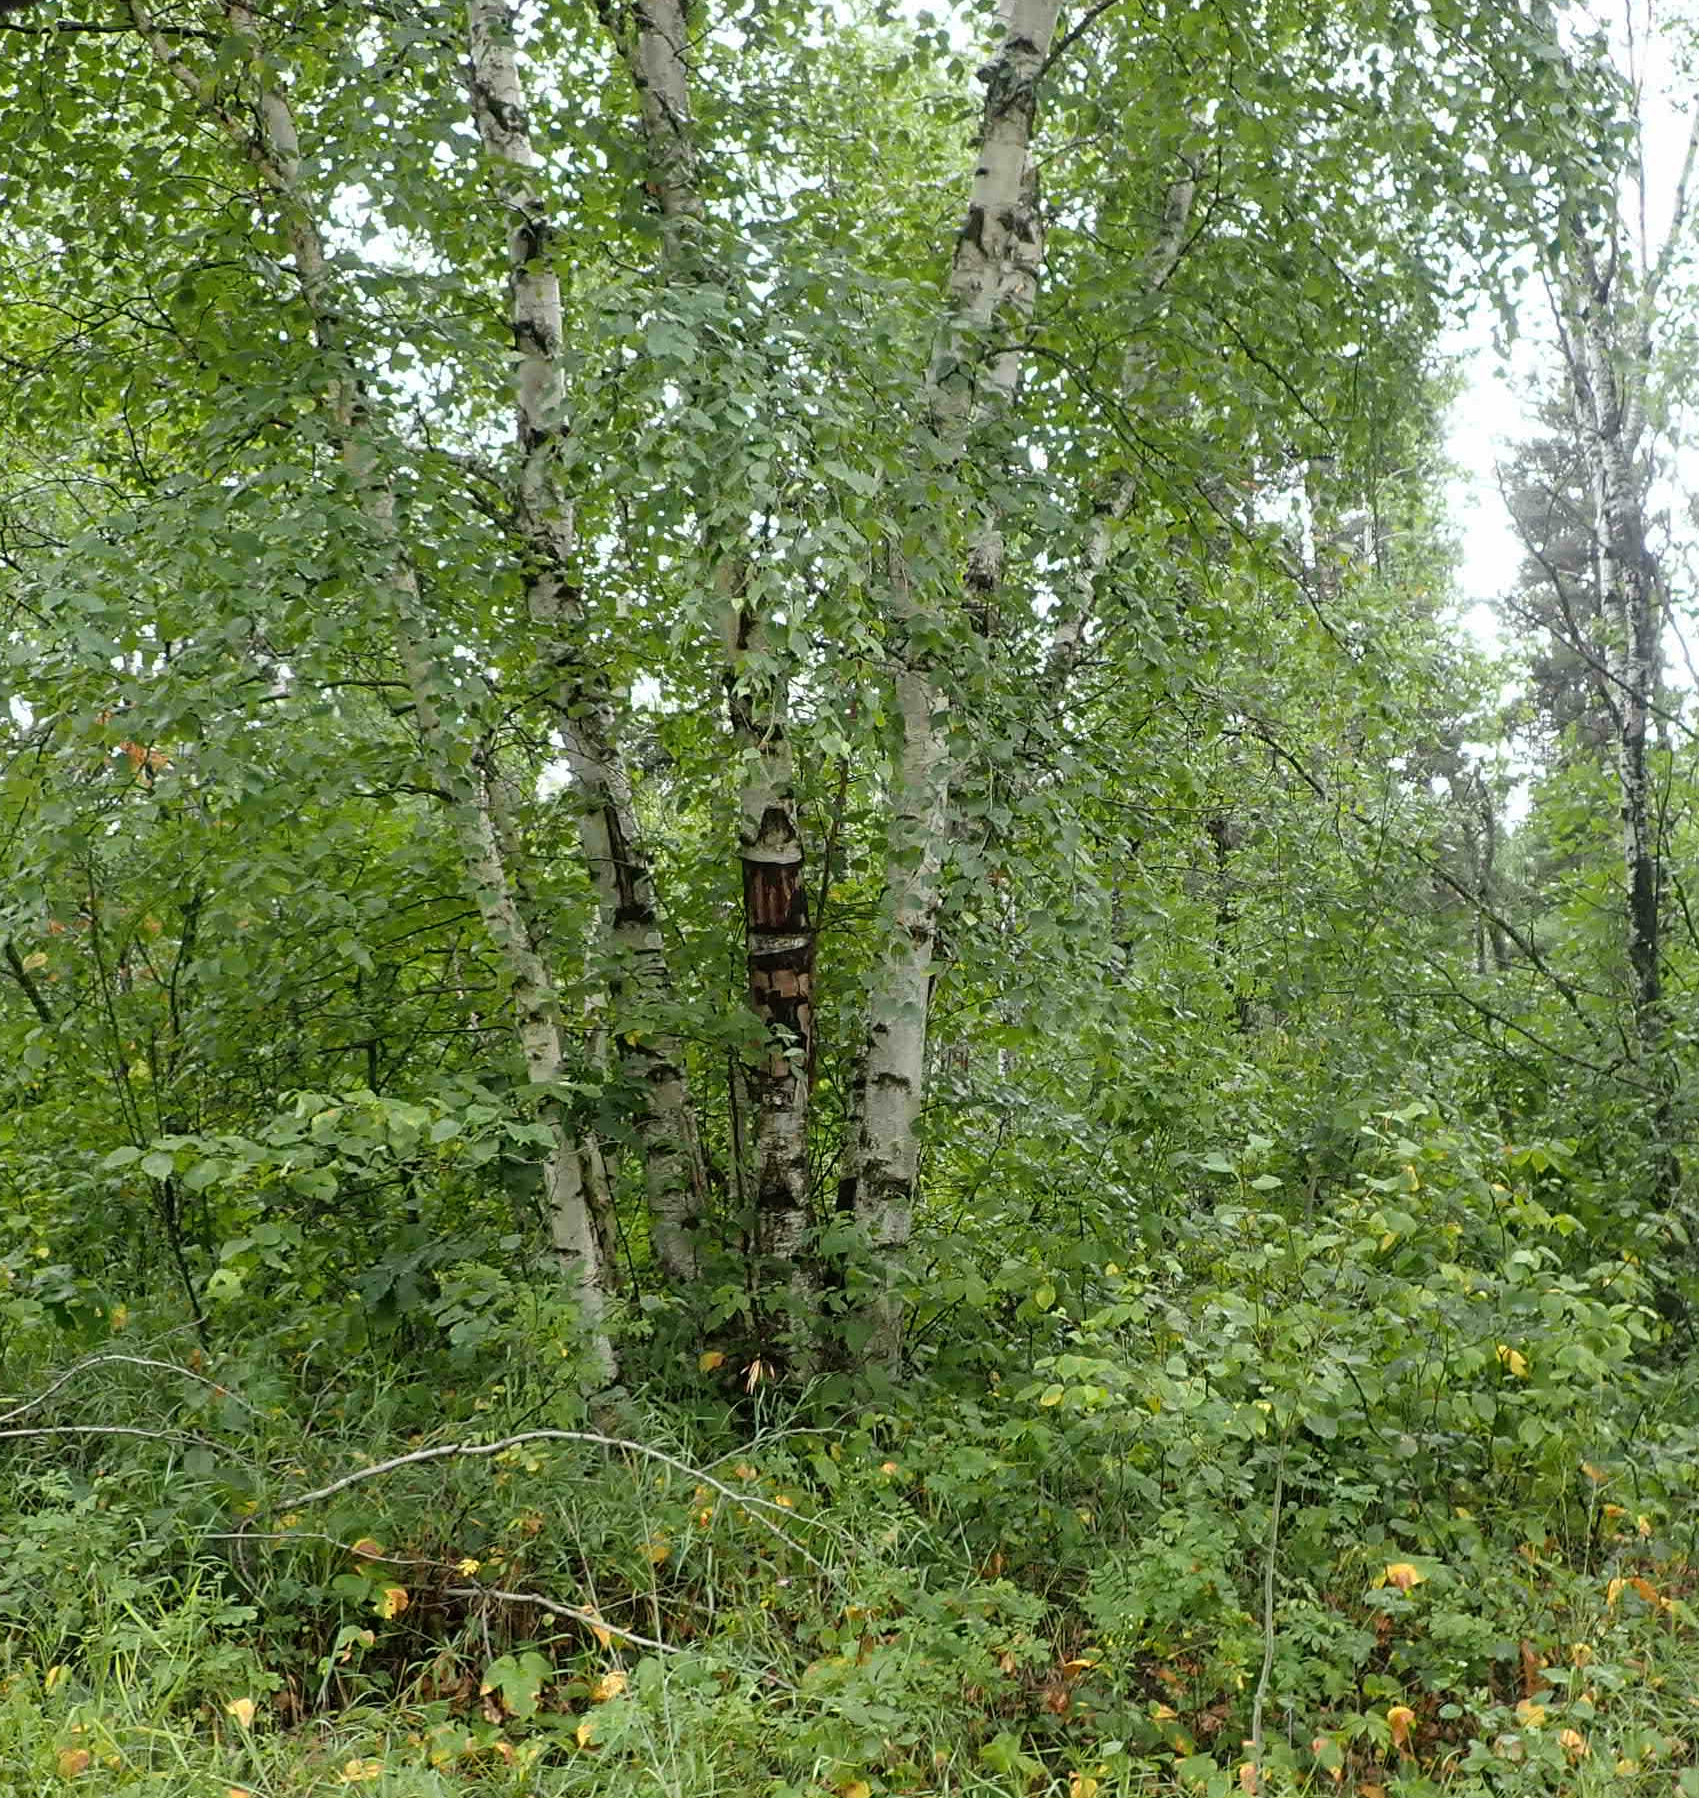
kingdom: Plantae
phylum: Tracheophyta
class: Magnoliopsida
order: Fagales
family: Betulaceae
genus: Betula
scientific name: Betula papyrifera
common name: Paper birch
